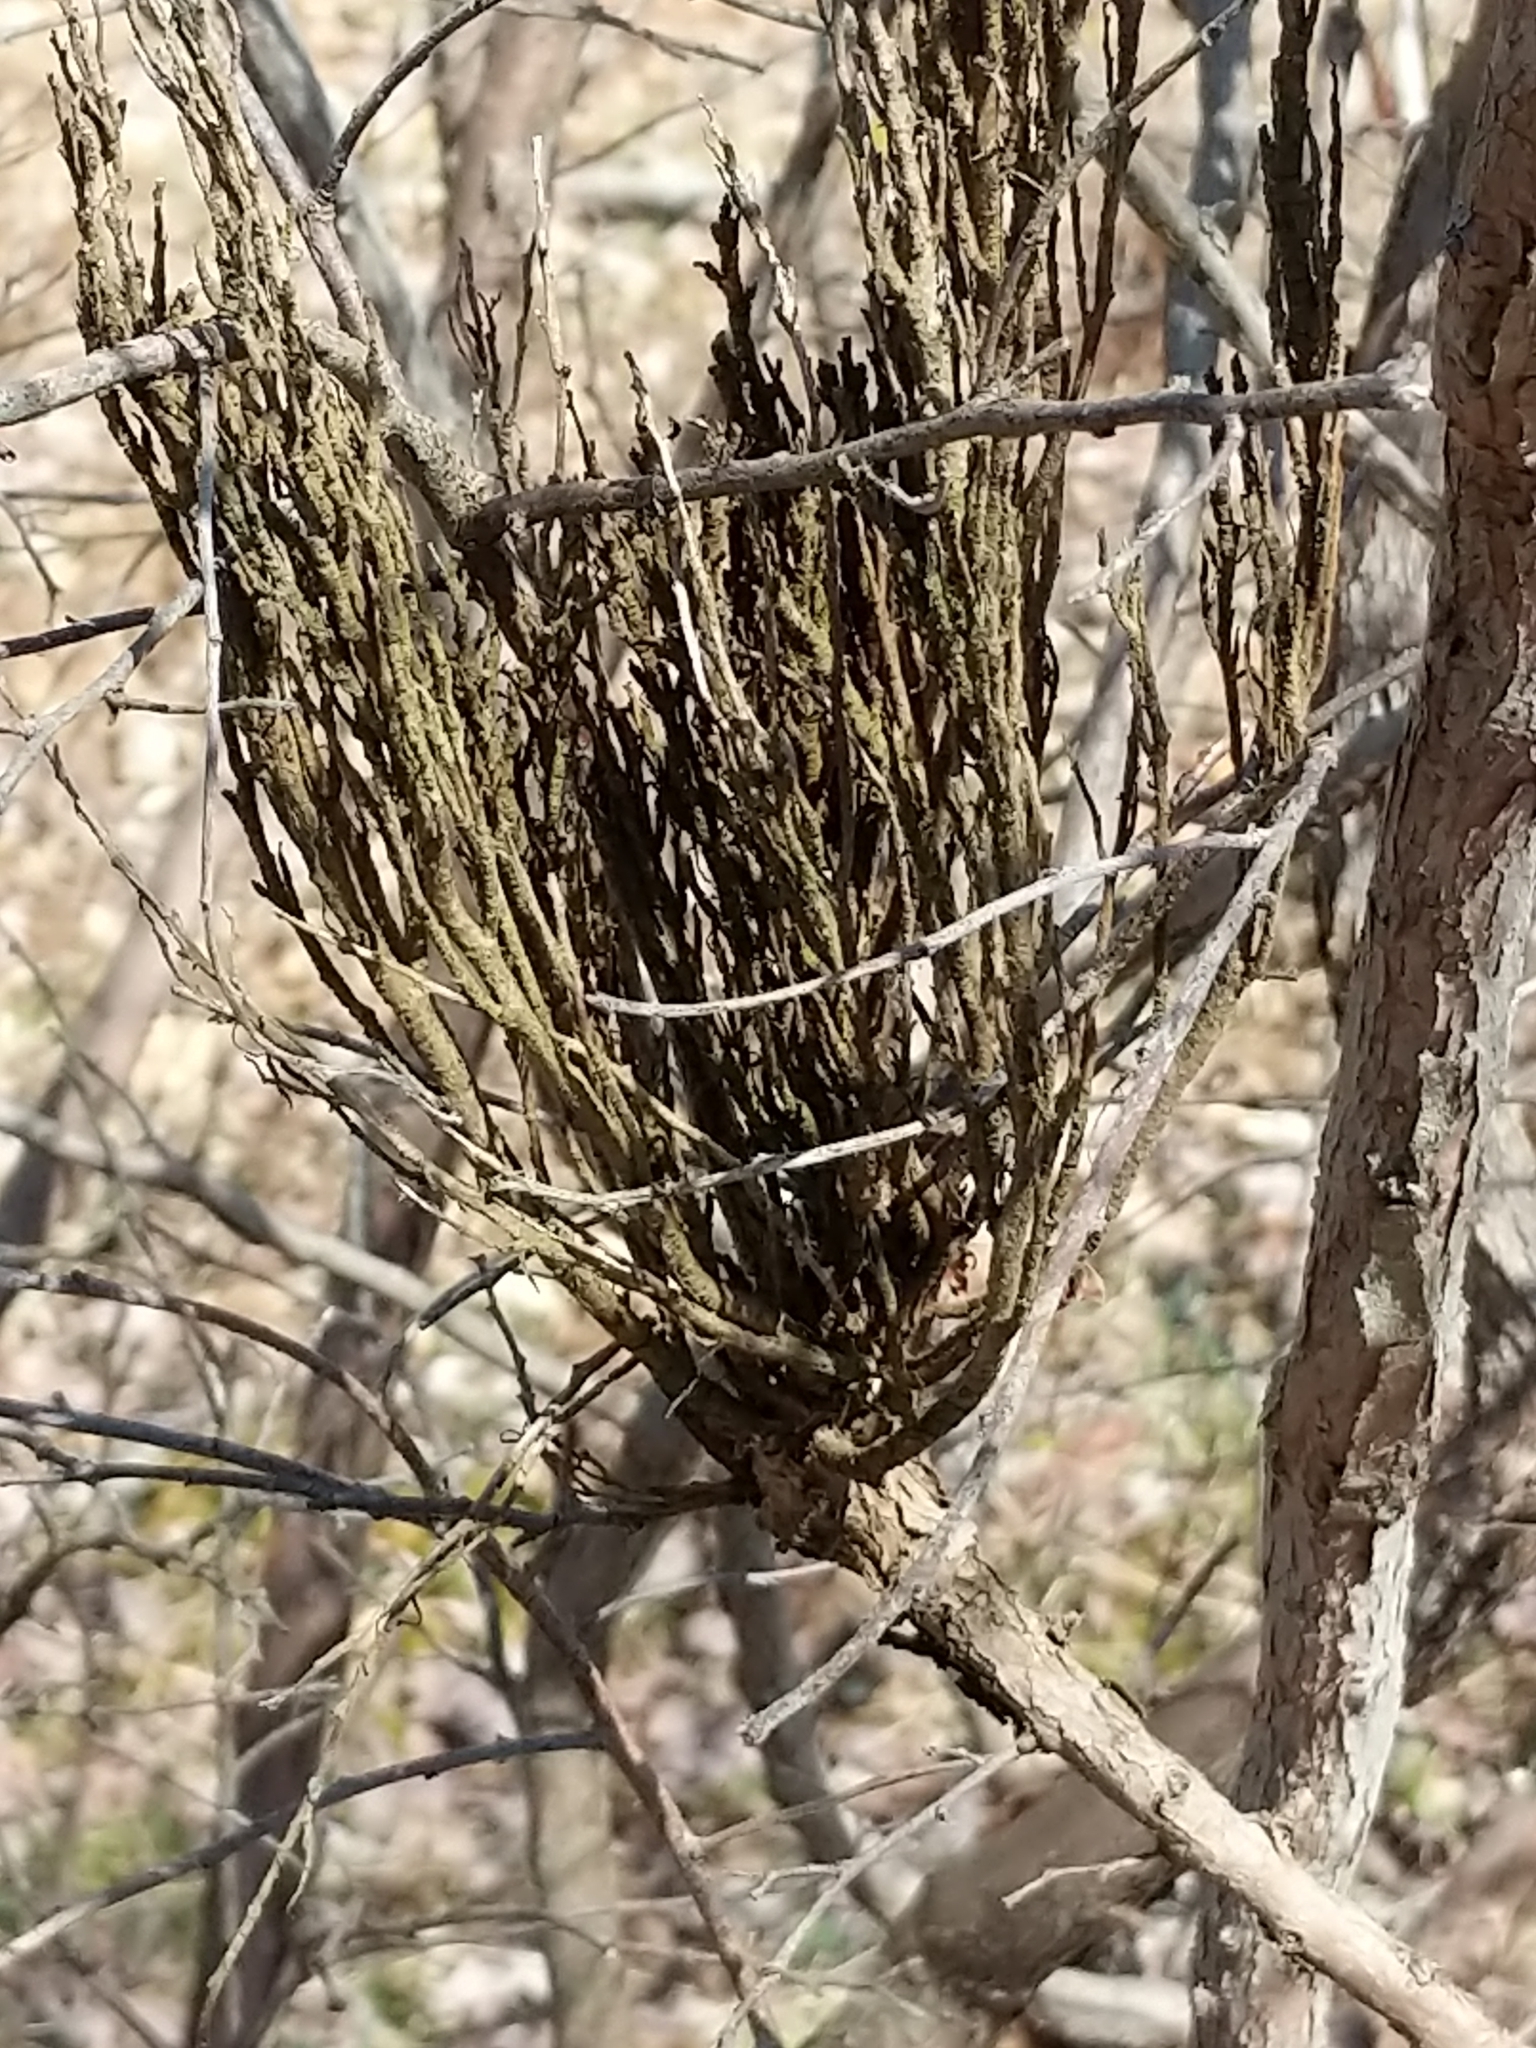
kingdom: Fungi
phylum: Basidiomycota
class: Pucciniomycetes
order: Pucciniales
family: Pucciniastraceae
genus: Calyptospora
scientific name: Calyptospora columnaris
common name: Huckleberry broom rust fungus
